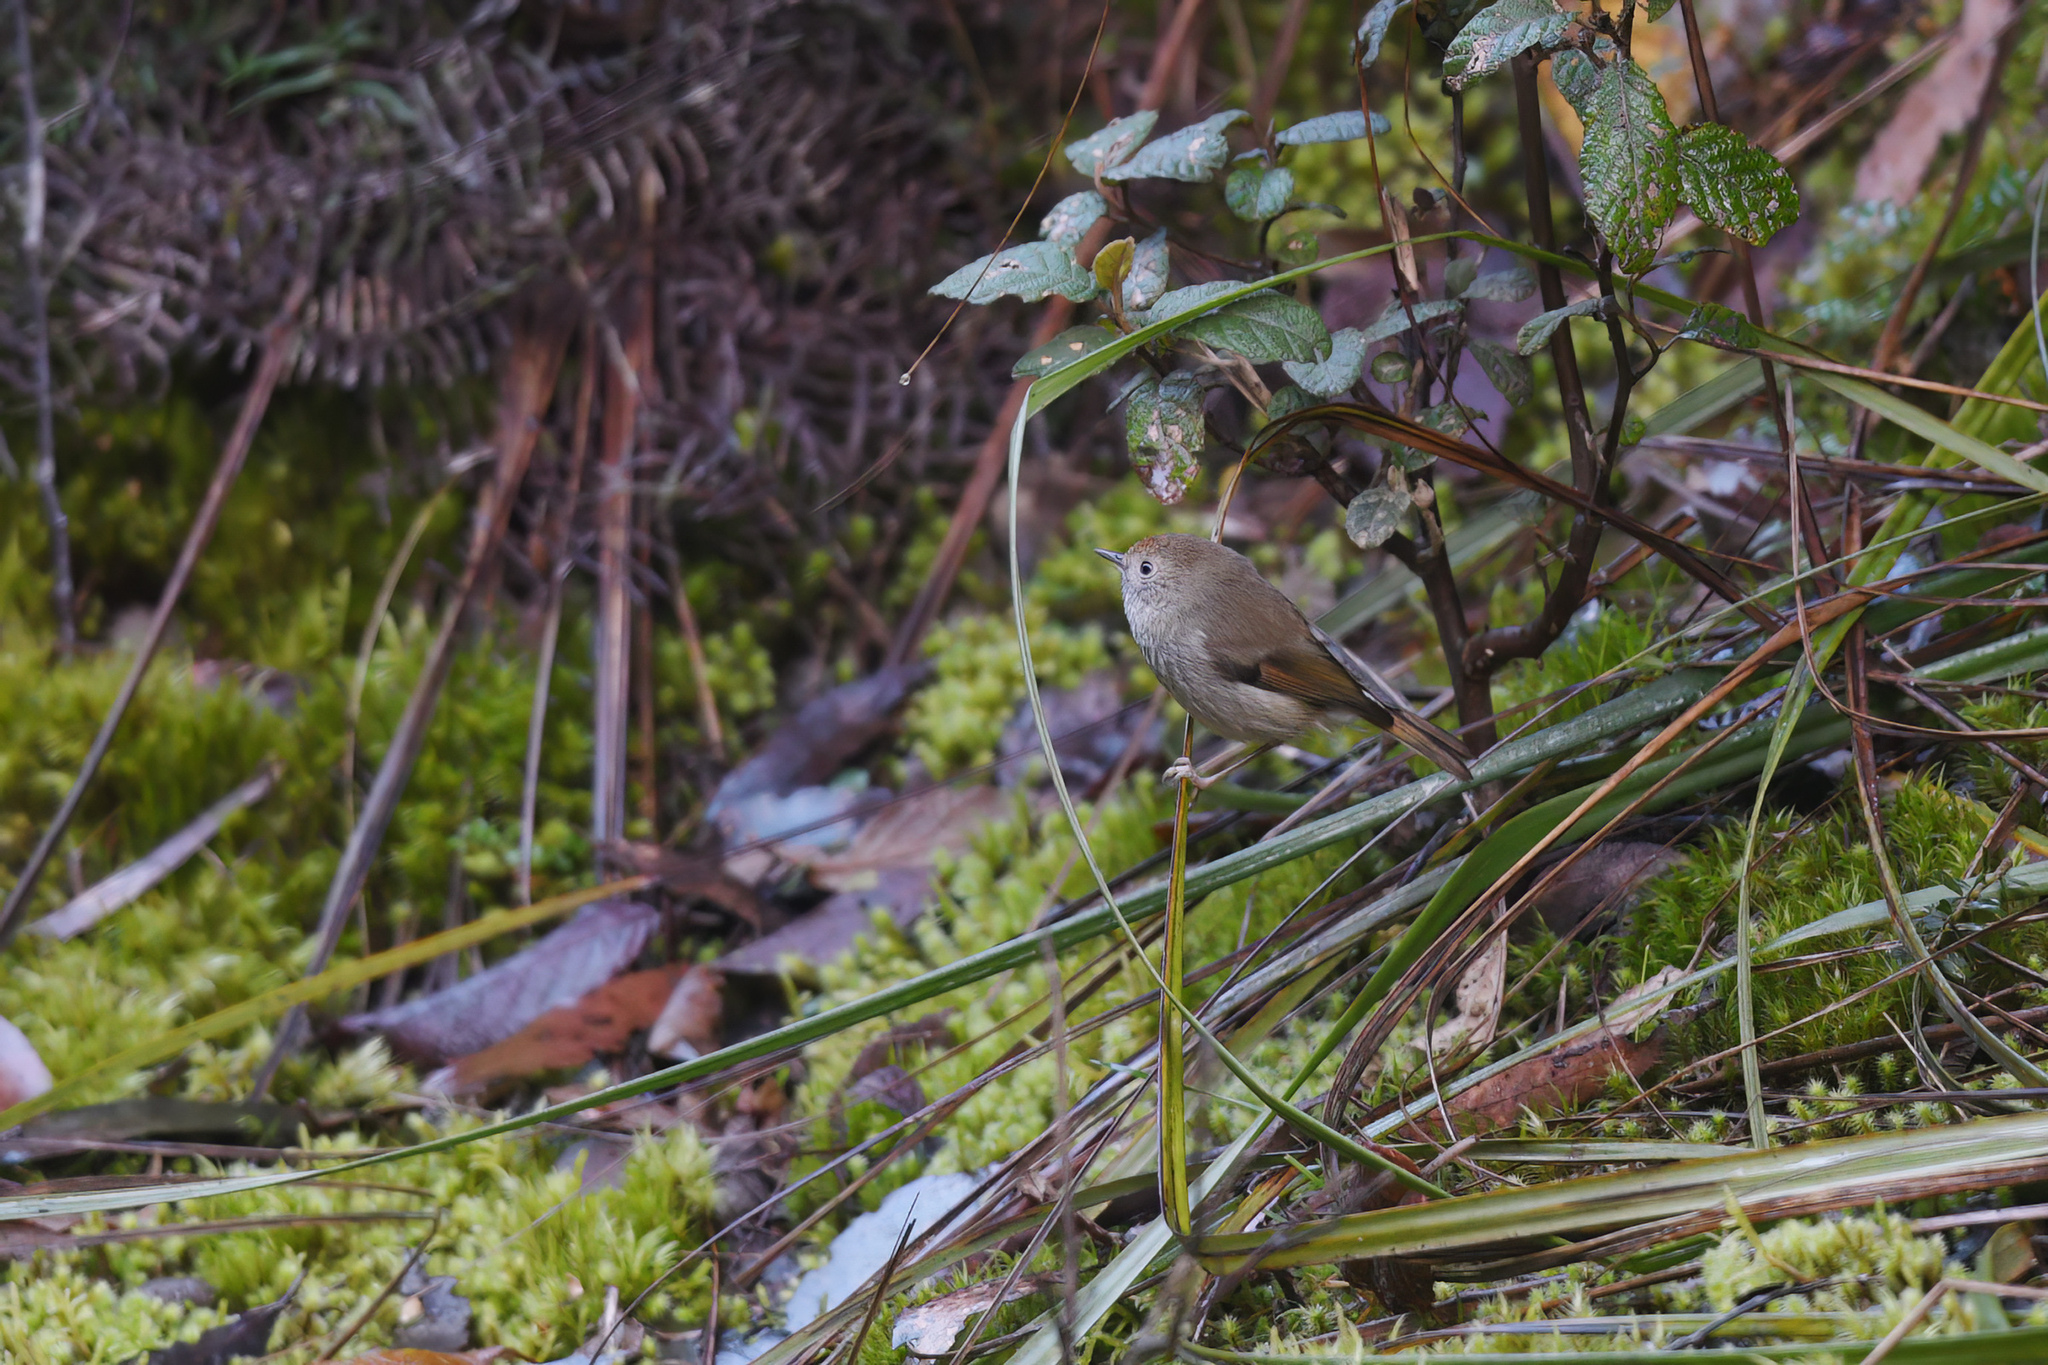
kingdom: Animalia
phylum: Chordata
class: Aves
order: Passeriformes
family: Acanthizidae
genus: Acanthiza
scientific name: Acanthiza ewingii
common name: Tasmanian thornbill
